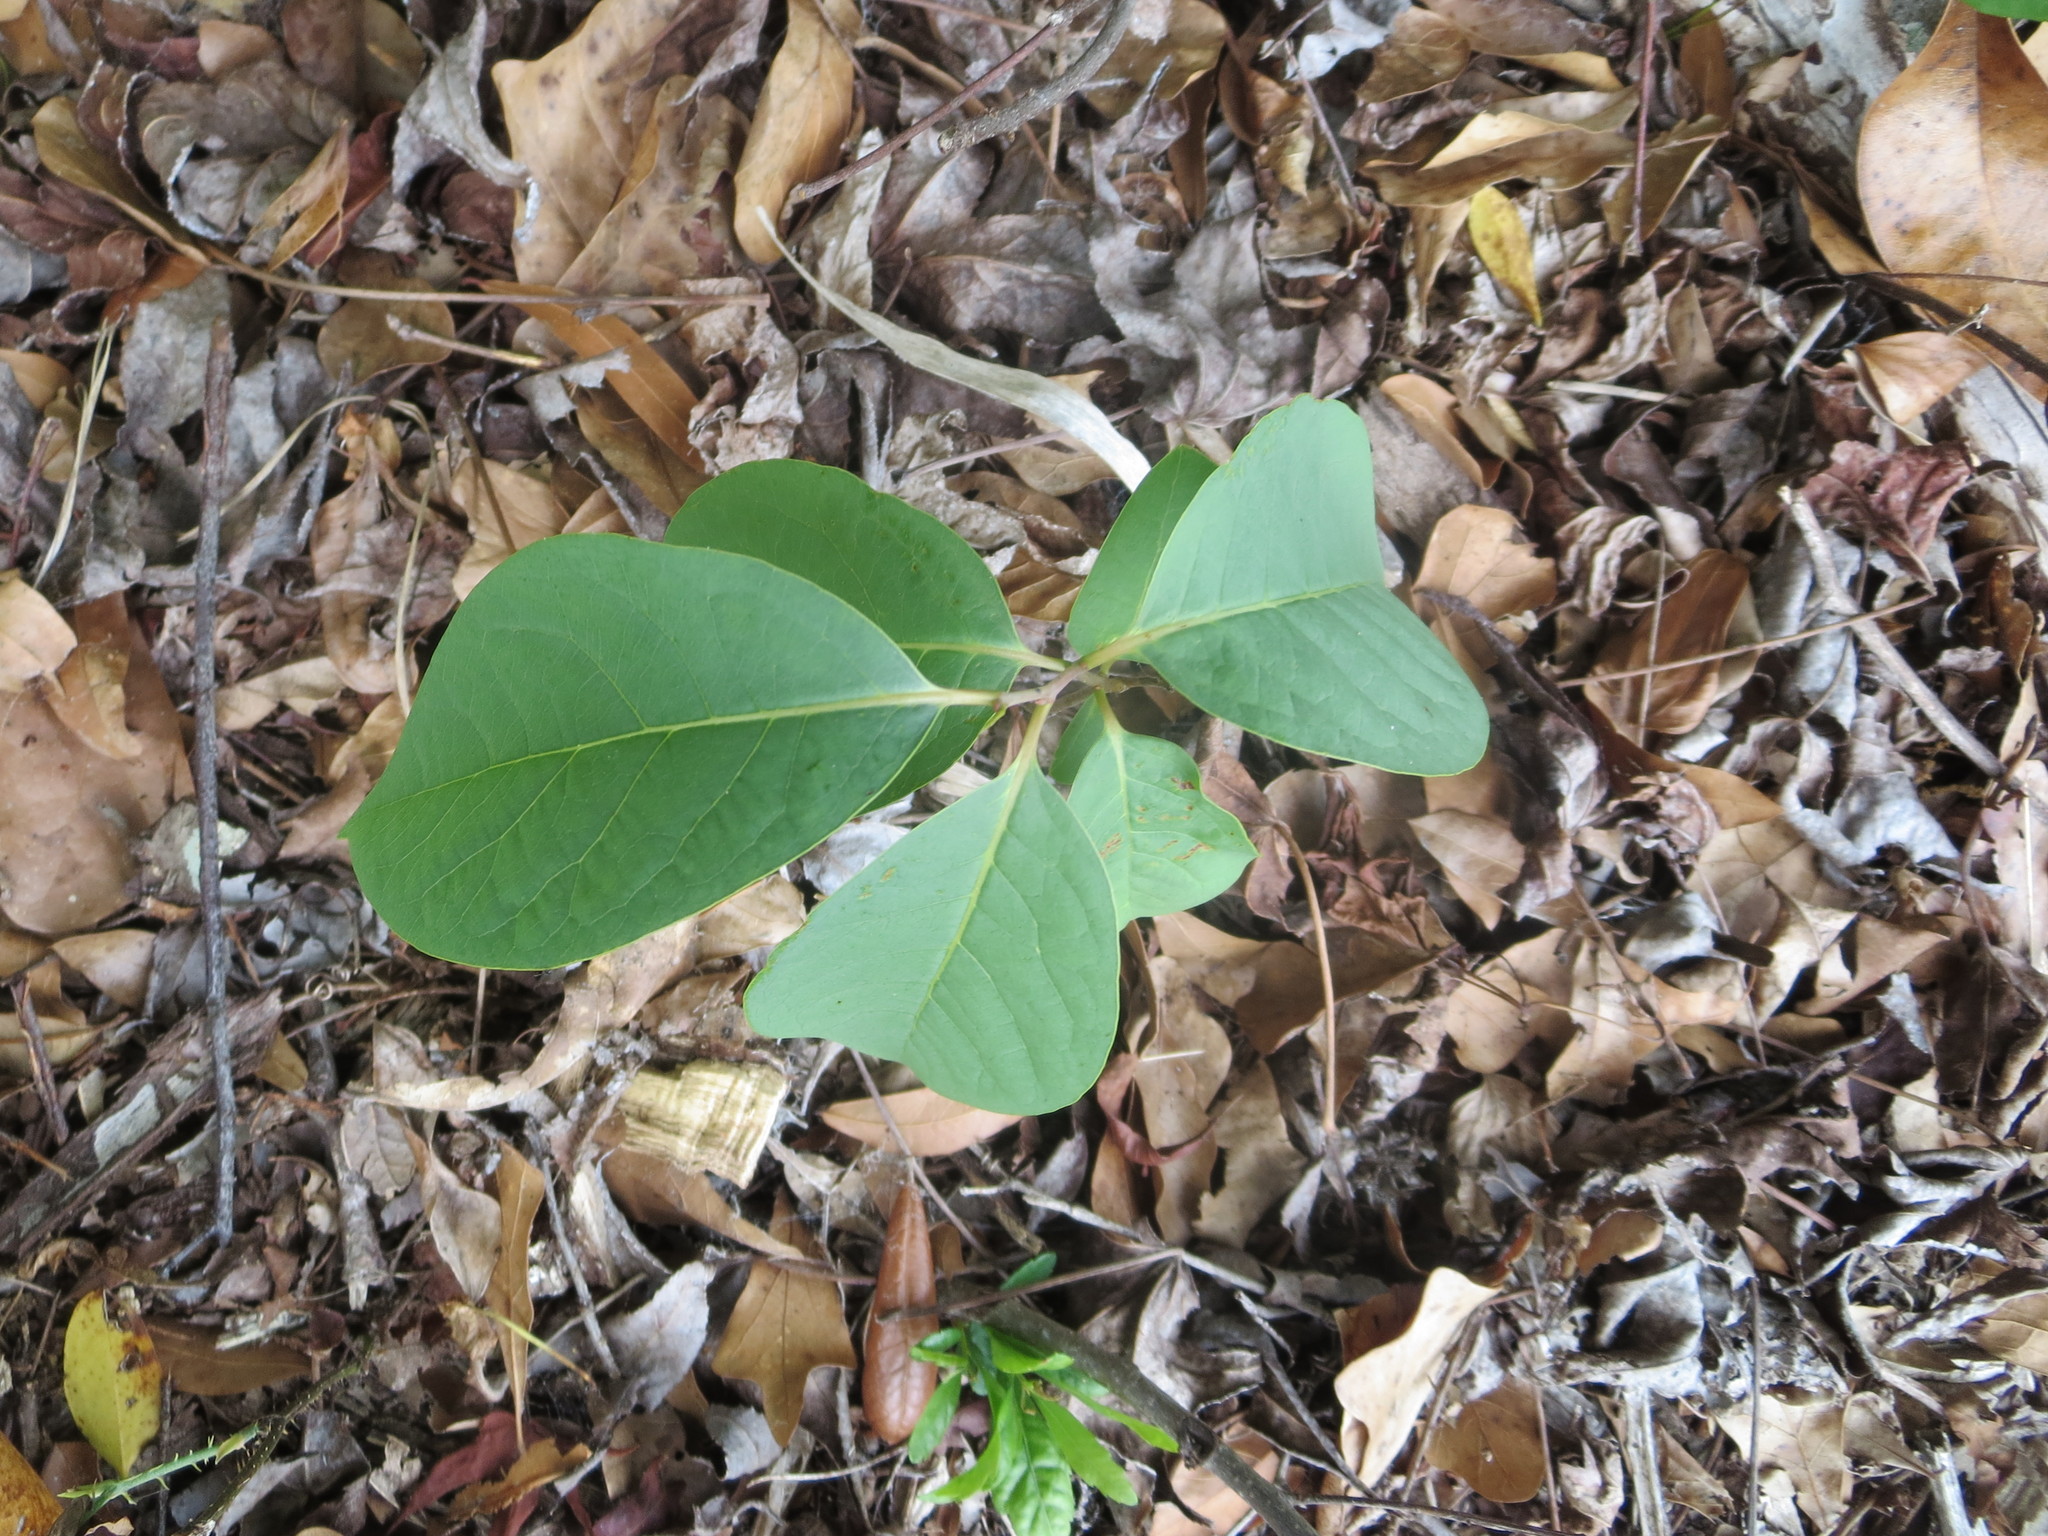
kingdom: Plantae
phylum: Tracheophyta
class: Magnoliopsida
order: Ericales
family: Ebenaceae
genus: Diospyros
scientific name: Diospyros virginiana
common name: Persimmon
